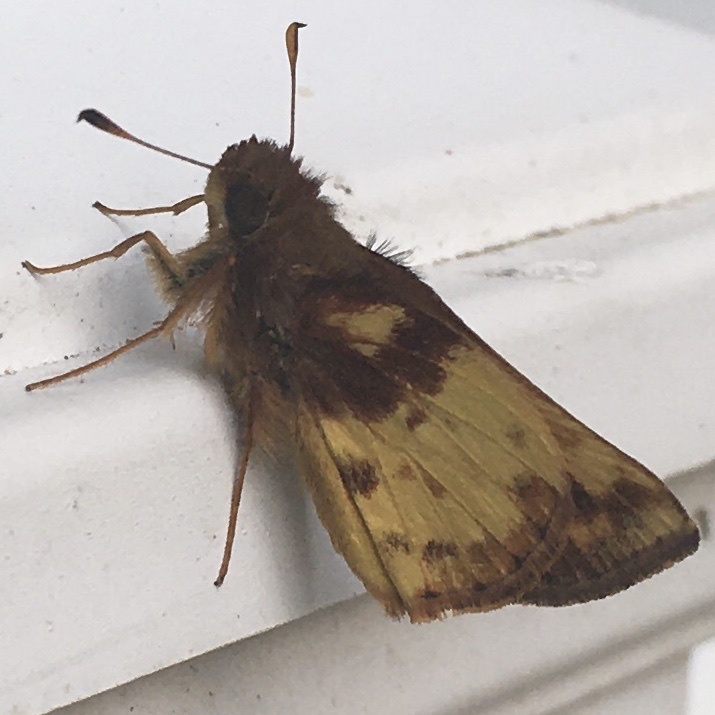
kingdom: Animalia
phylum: Arthropoda
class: Insecta
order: Lepidoptera
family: Hesperiidae
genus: Lon
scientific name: Lon zabulon
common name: Zabulon skipper
